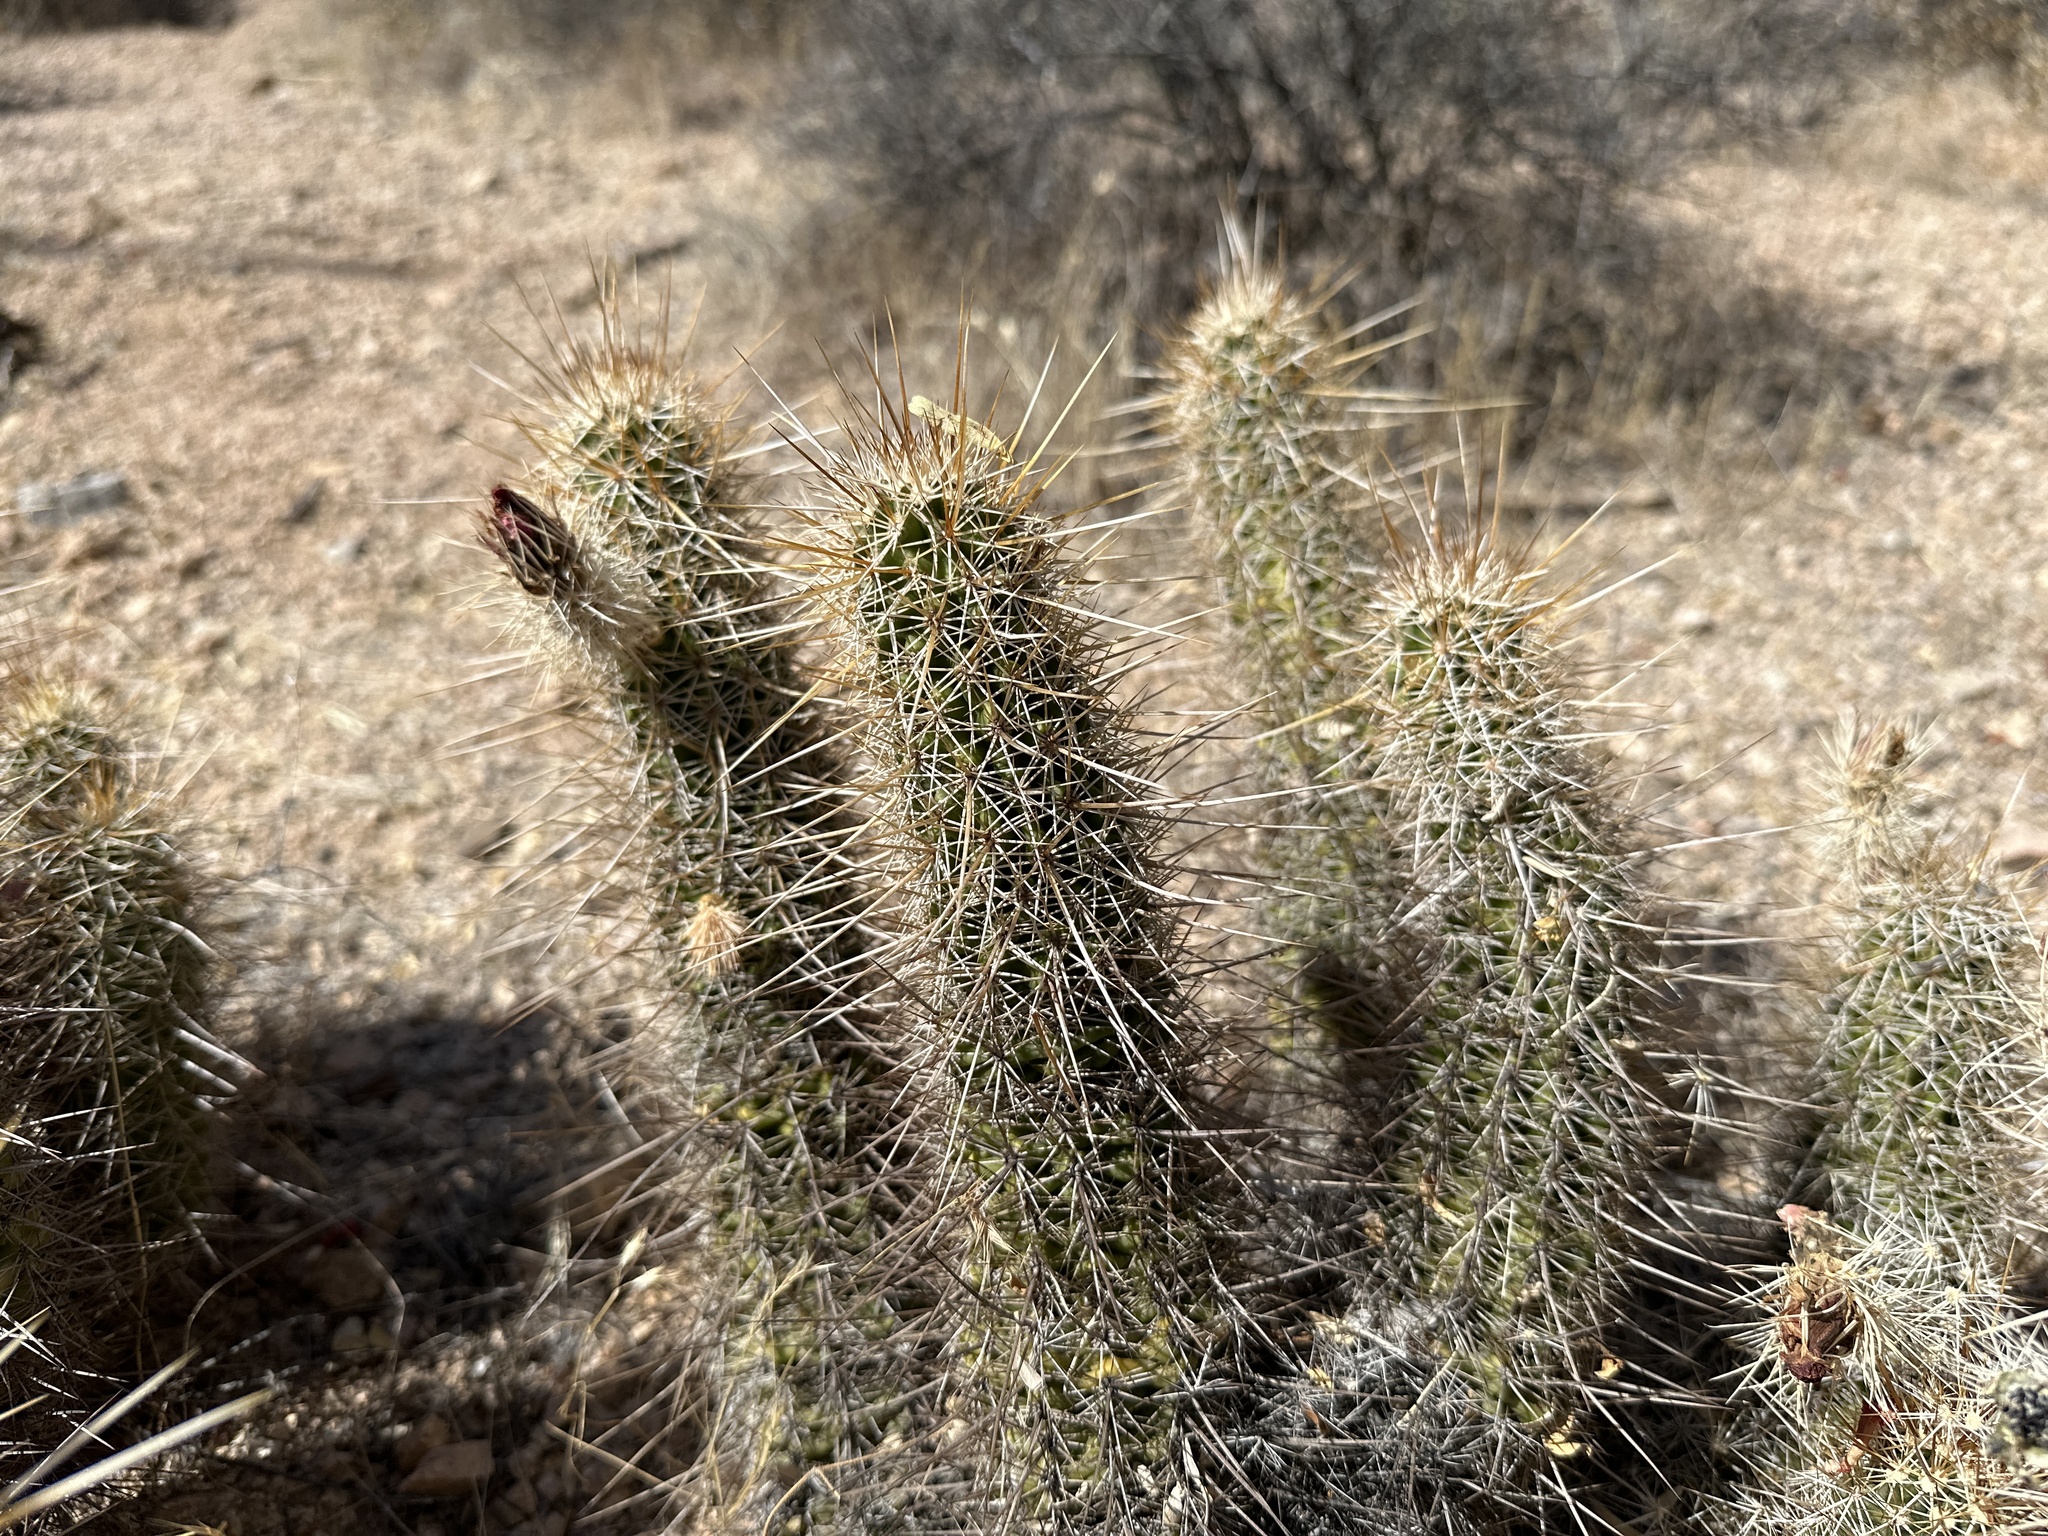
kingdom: Plantae
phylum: Tracheophyta
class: Magnoliopsida
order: Caryophyllales
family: Cactaceae
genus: Echinocereus
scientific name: Echinocereus engelmannii
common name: Engelmann's hedgehog cactus
